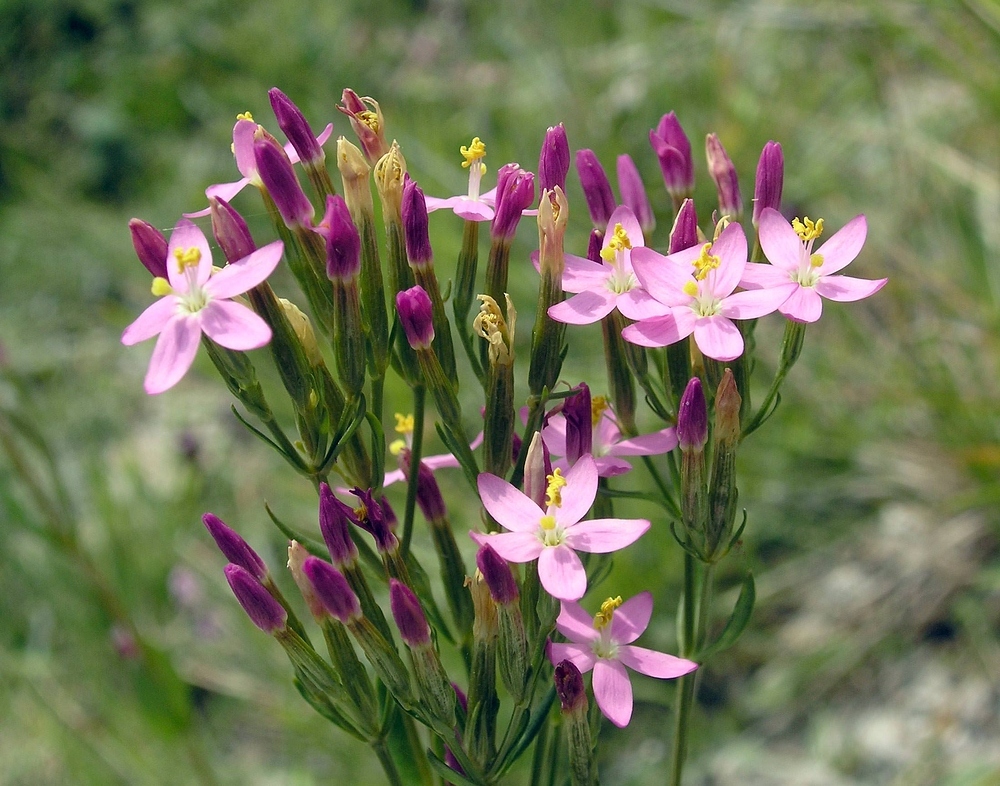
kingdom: Plantae
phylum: Tracheophyta
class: Magnoliopsida
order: Gentianales
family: Gentianaceae
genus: Centaurium
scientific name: Centaurium erythraea
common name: Common centaury
